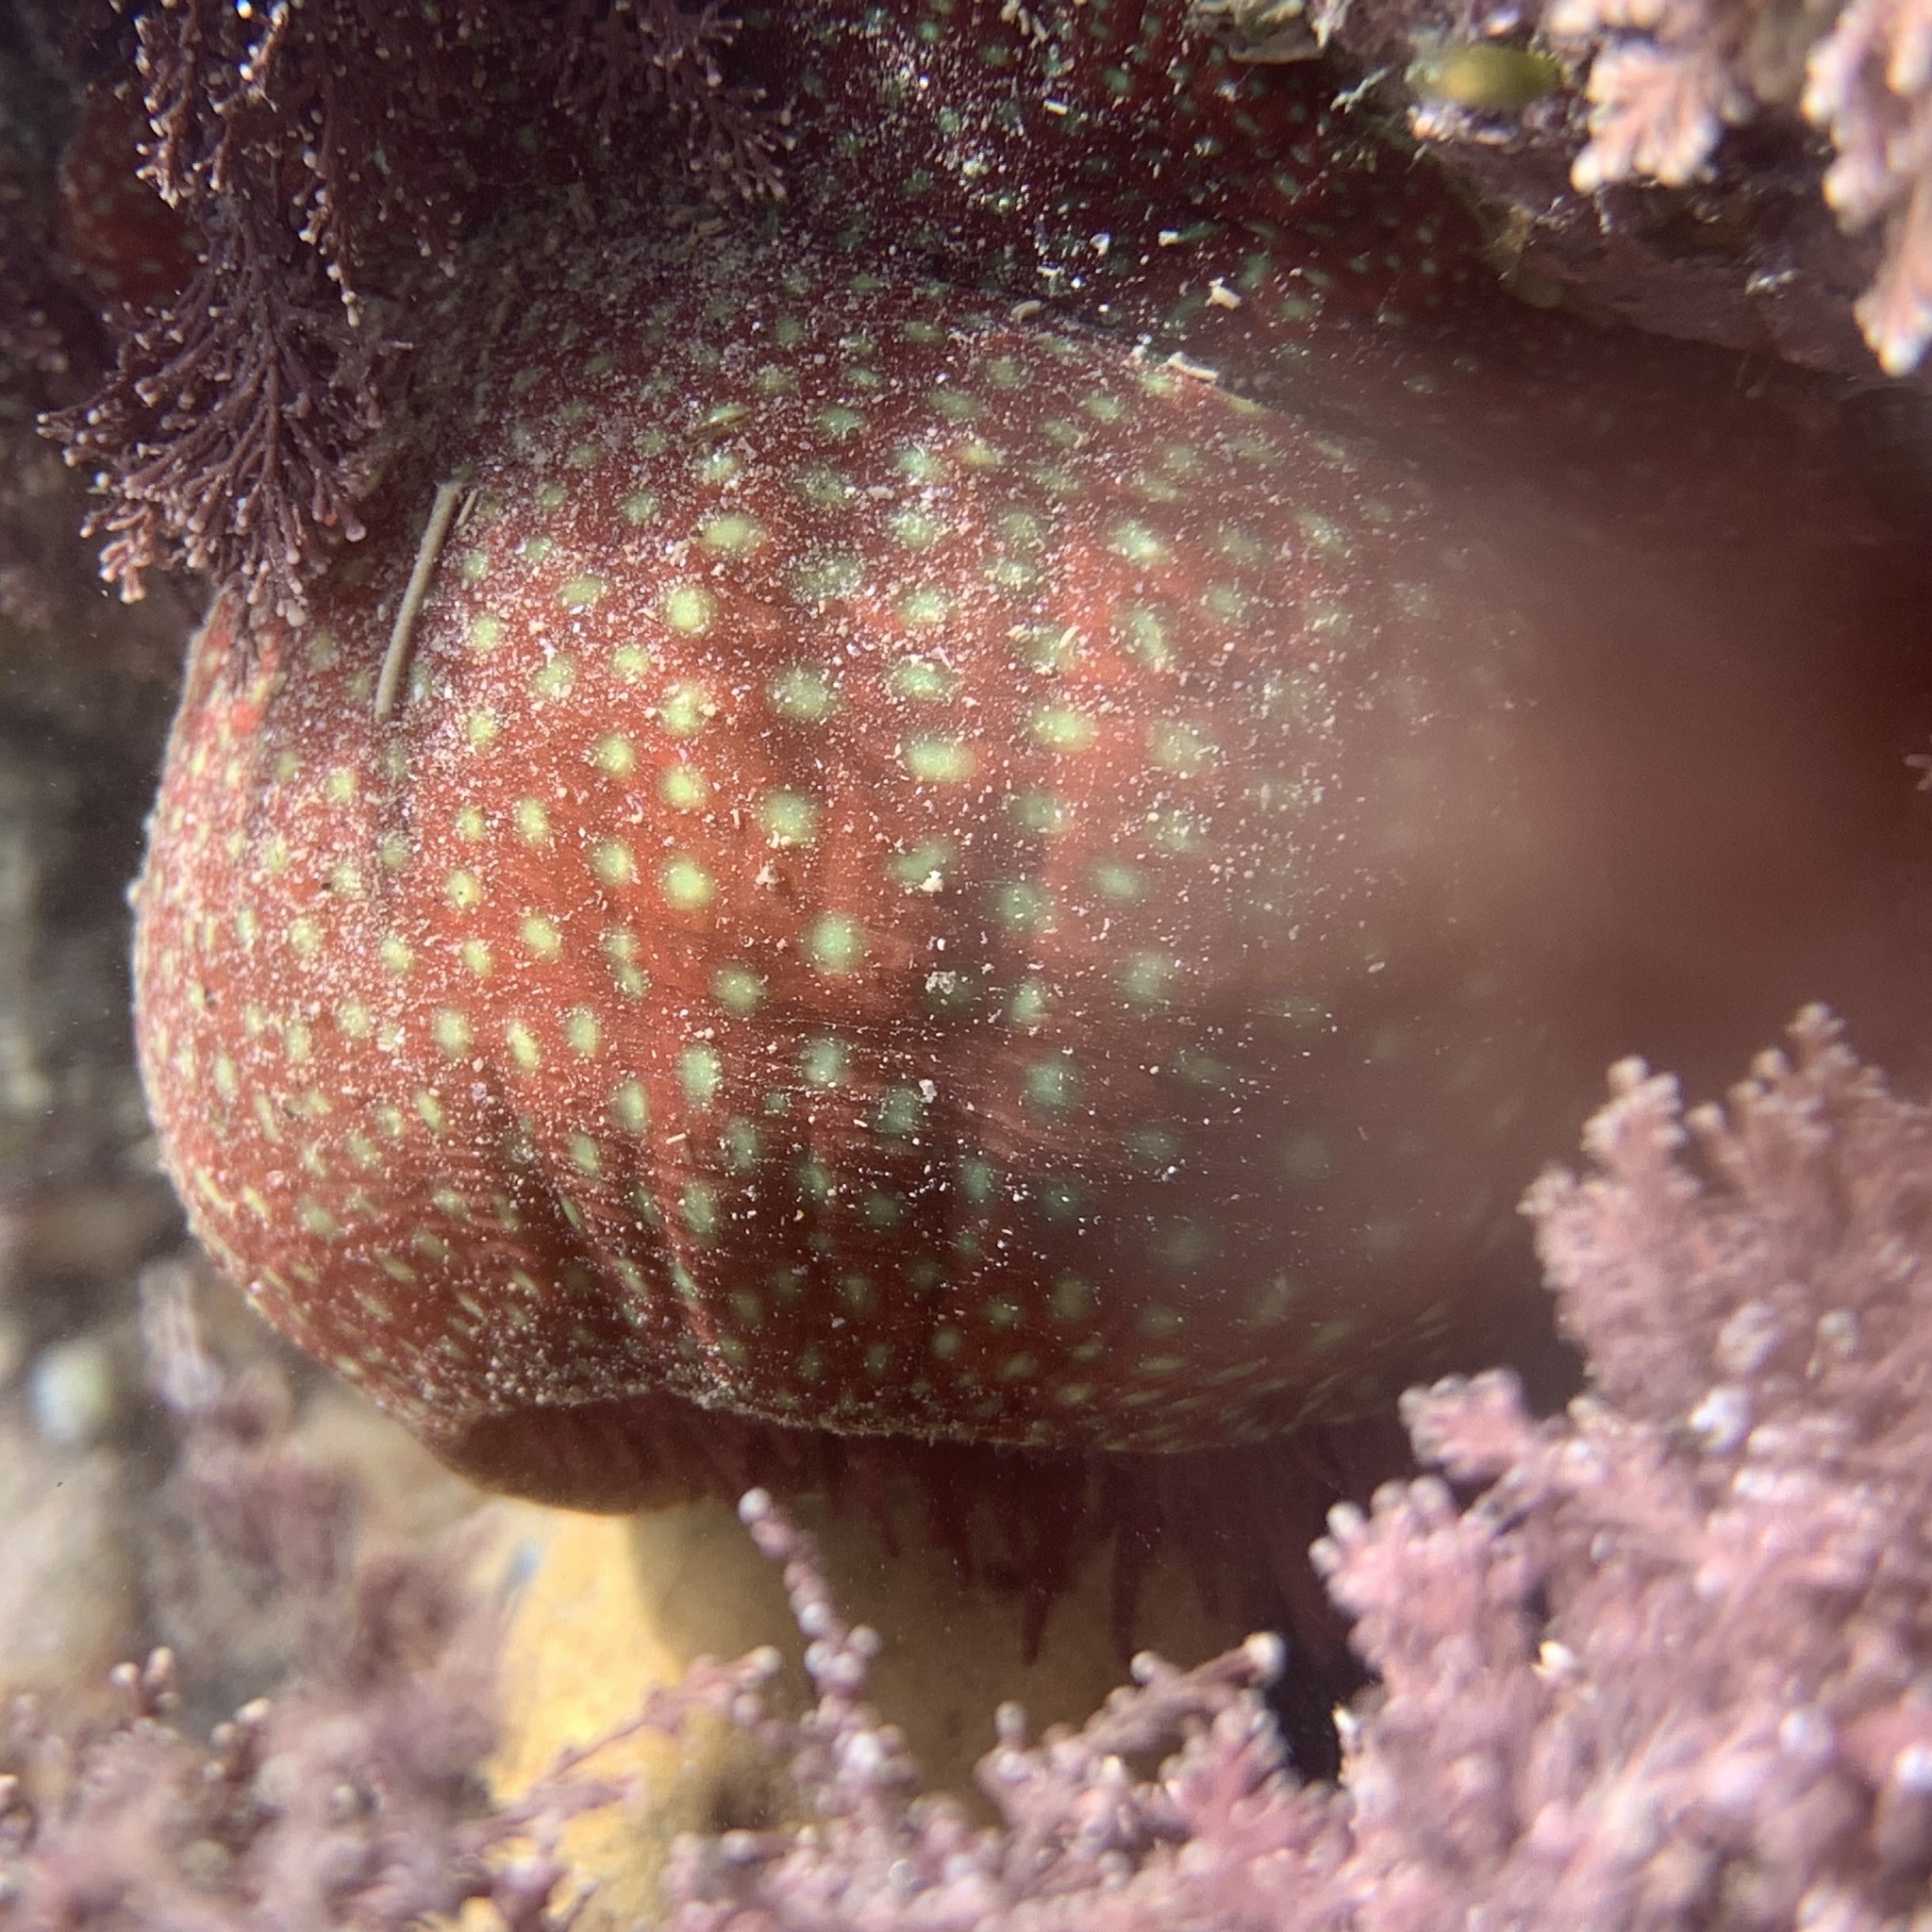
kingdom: Animalia
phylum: Cnidaria
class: Anthozoa
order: Actiniaria
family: Actiniidae
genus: Actinia
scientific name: Actinia fragacea
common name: Strawberry anemone
